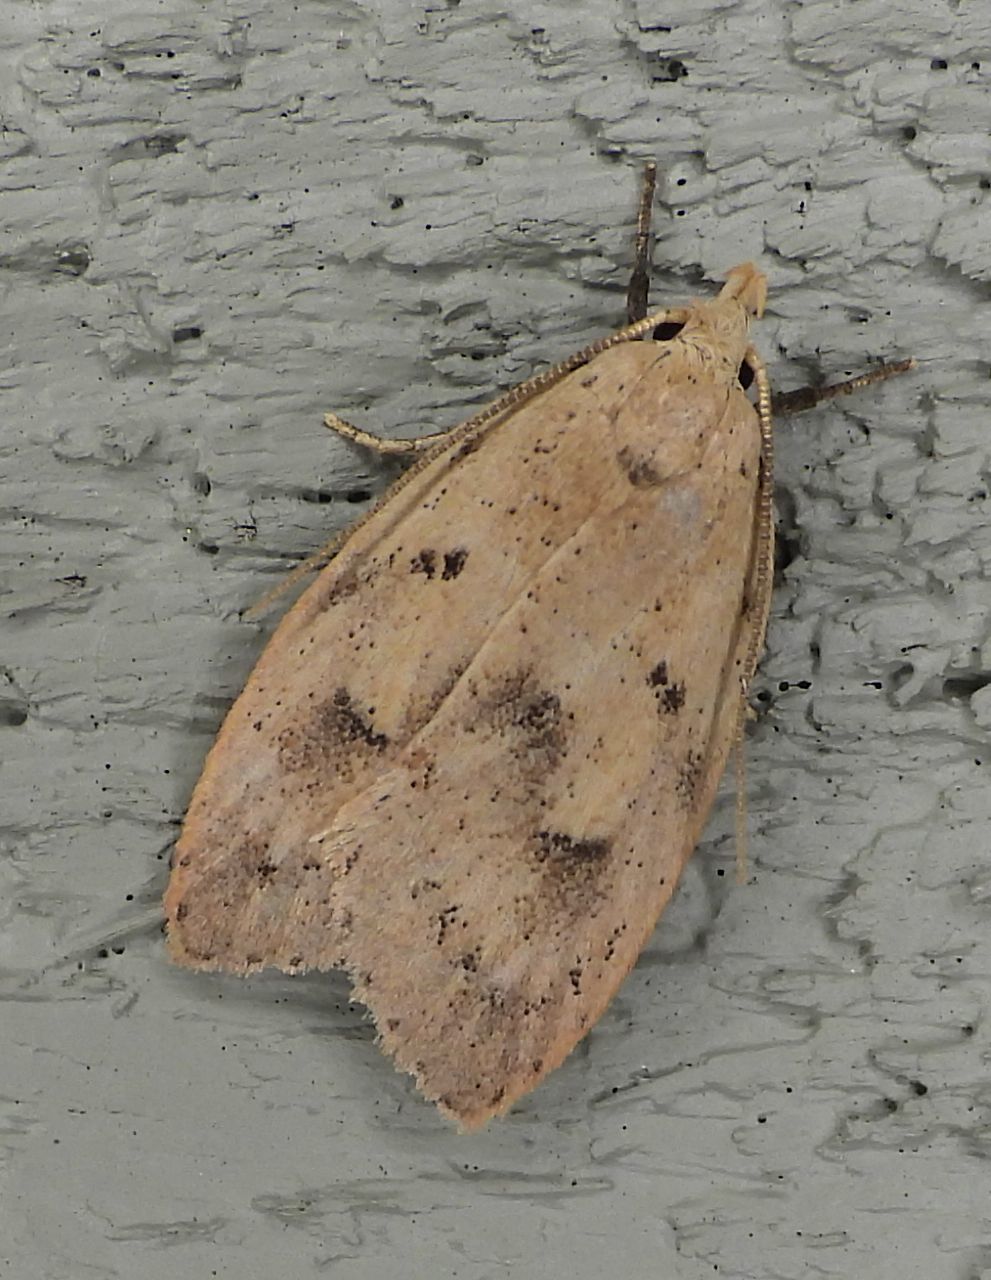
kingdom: Animalia
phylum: Arthropoda
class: Insecta
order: Lepidoptera
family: Peleopodidae
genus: Machimia
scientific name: Machimia tentoriferella
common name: Gold-striped leaftier moth
